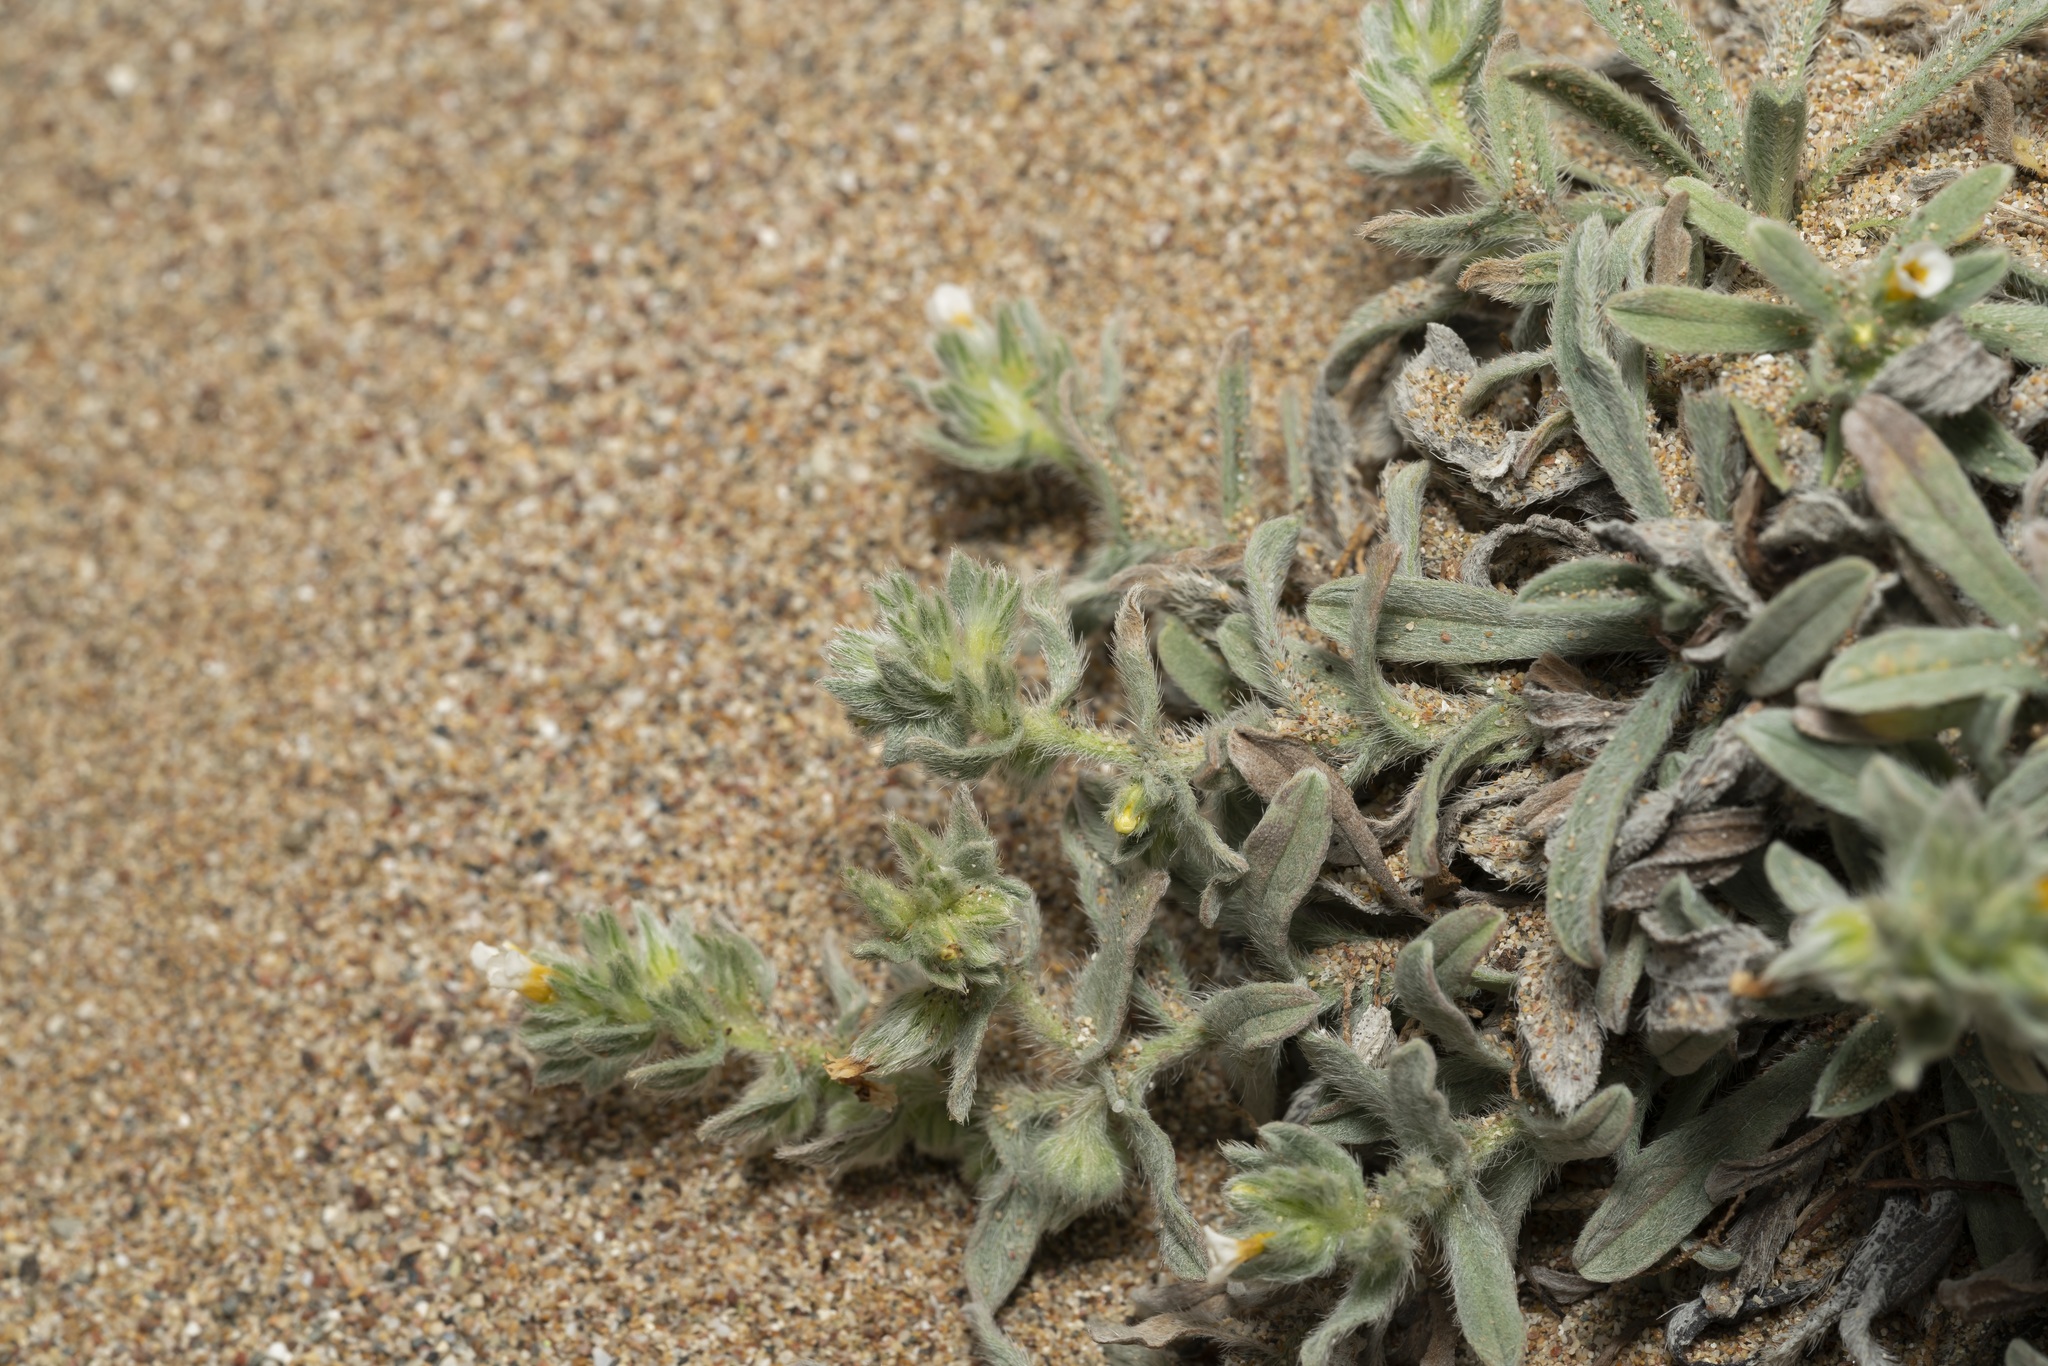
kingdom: Plantae
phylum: Tracheophyta
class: Magnoliopsida
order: Boraginales
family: Boraginaceae
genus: Alkanna
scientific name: Alkanna tinctoria
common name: Dyer's-alkanet
